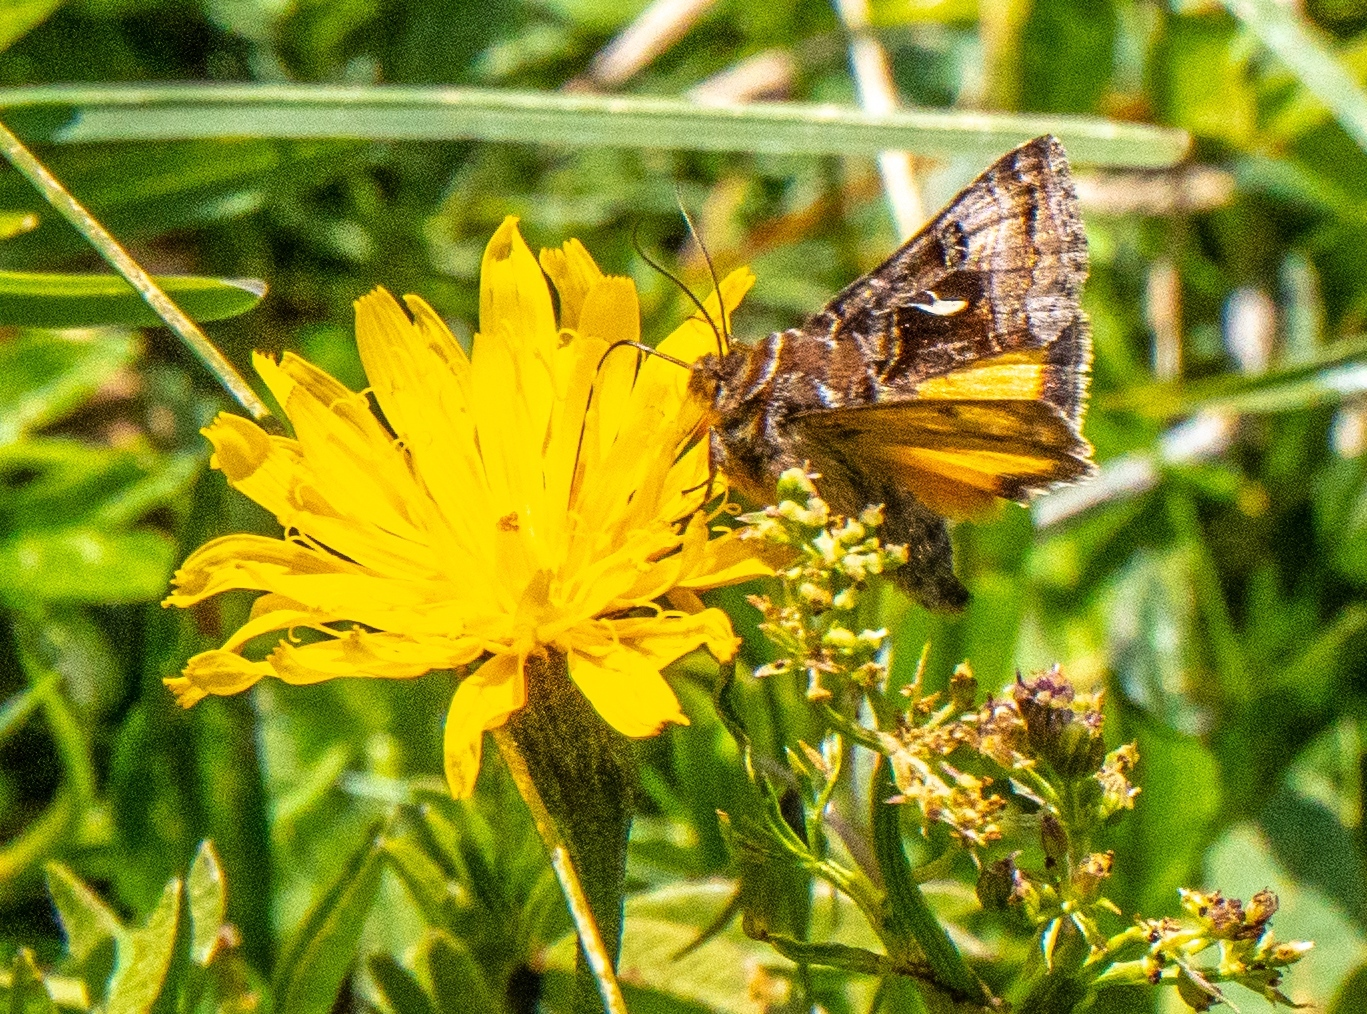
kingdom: Animalia
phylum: Arthropoda
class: Insecta
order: Lepidoptera
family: Noctuidae
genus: Syngrapha
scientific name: Syngrapha ain
